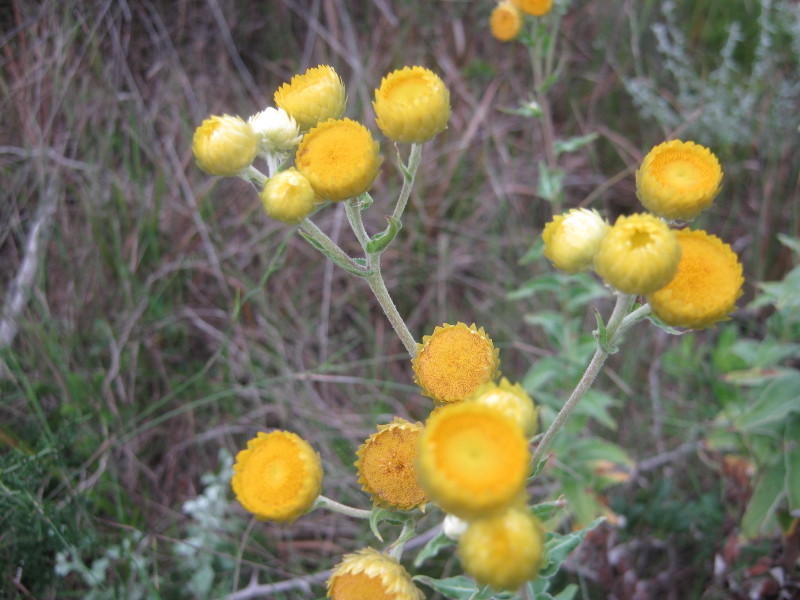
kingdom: Plantae
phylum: Tracheophyta
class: Magnoliopsida
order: Asterales
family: Asteraceae
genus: Helichrysum
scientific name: Helichrysum foetidum
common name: Stinking everlasting
